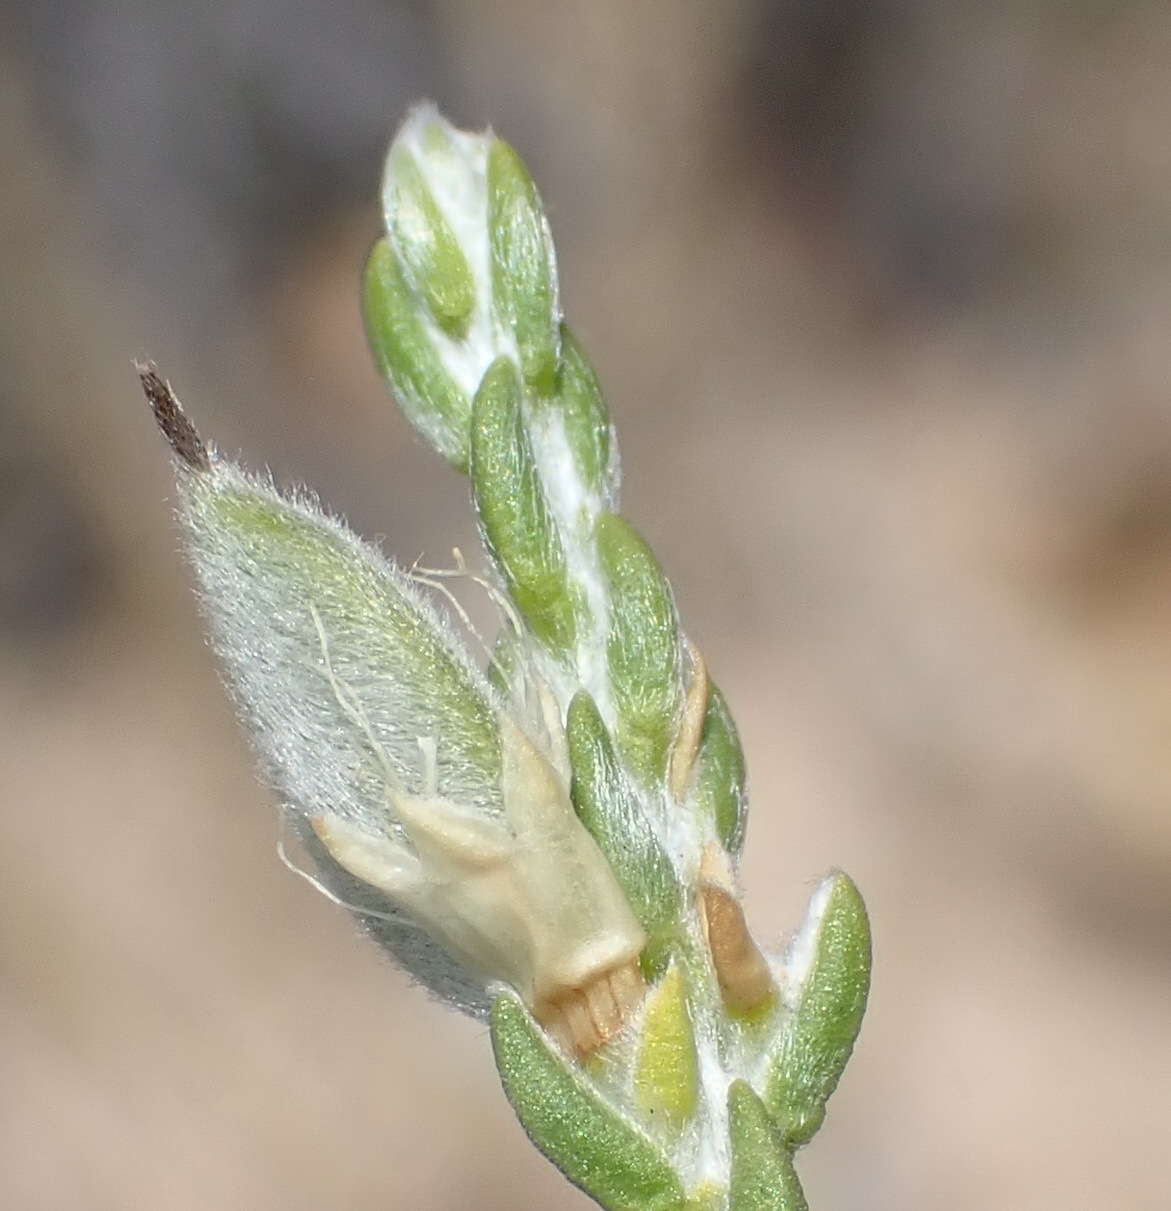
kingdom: Plantae
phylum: Tracheophyta
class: Magnoliopsida
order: Fabales
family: Fabaceae
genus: Amphithalea
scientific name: Amphithalea vlokii
